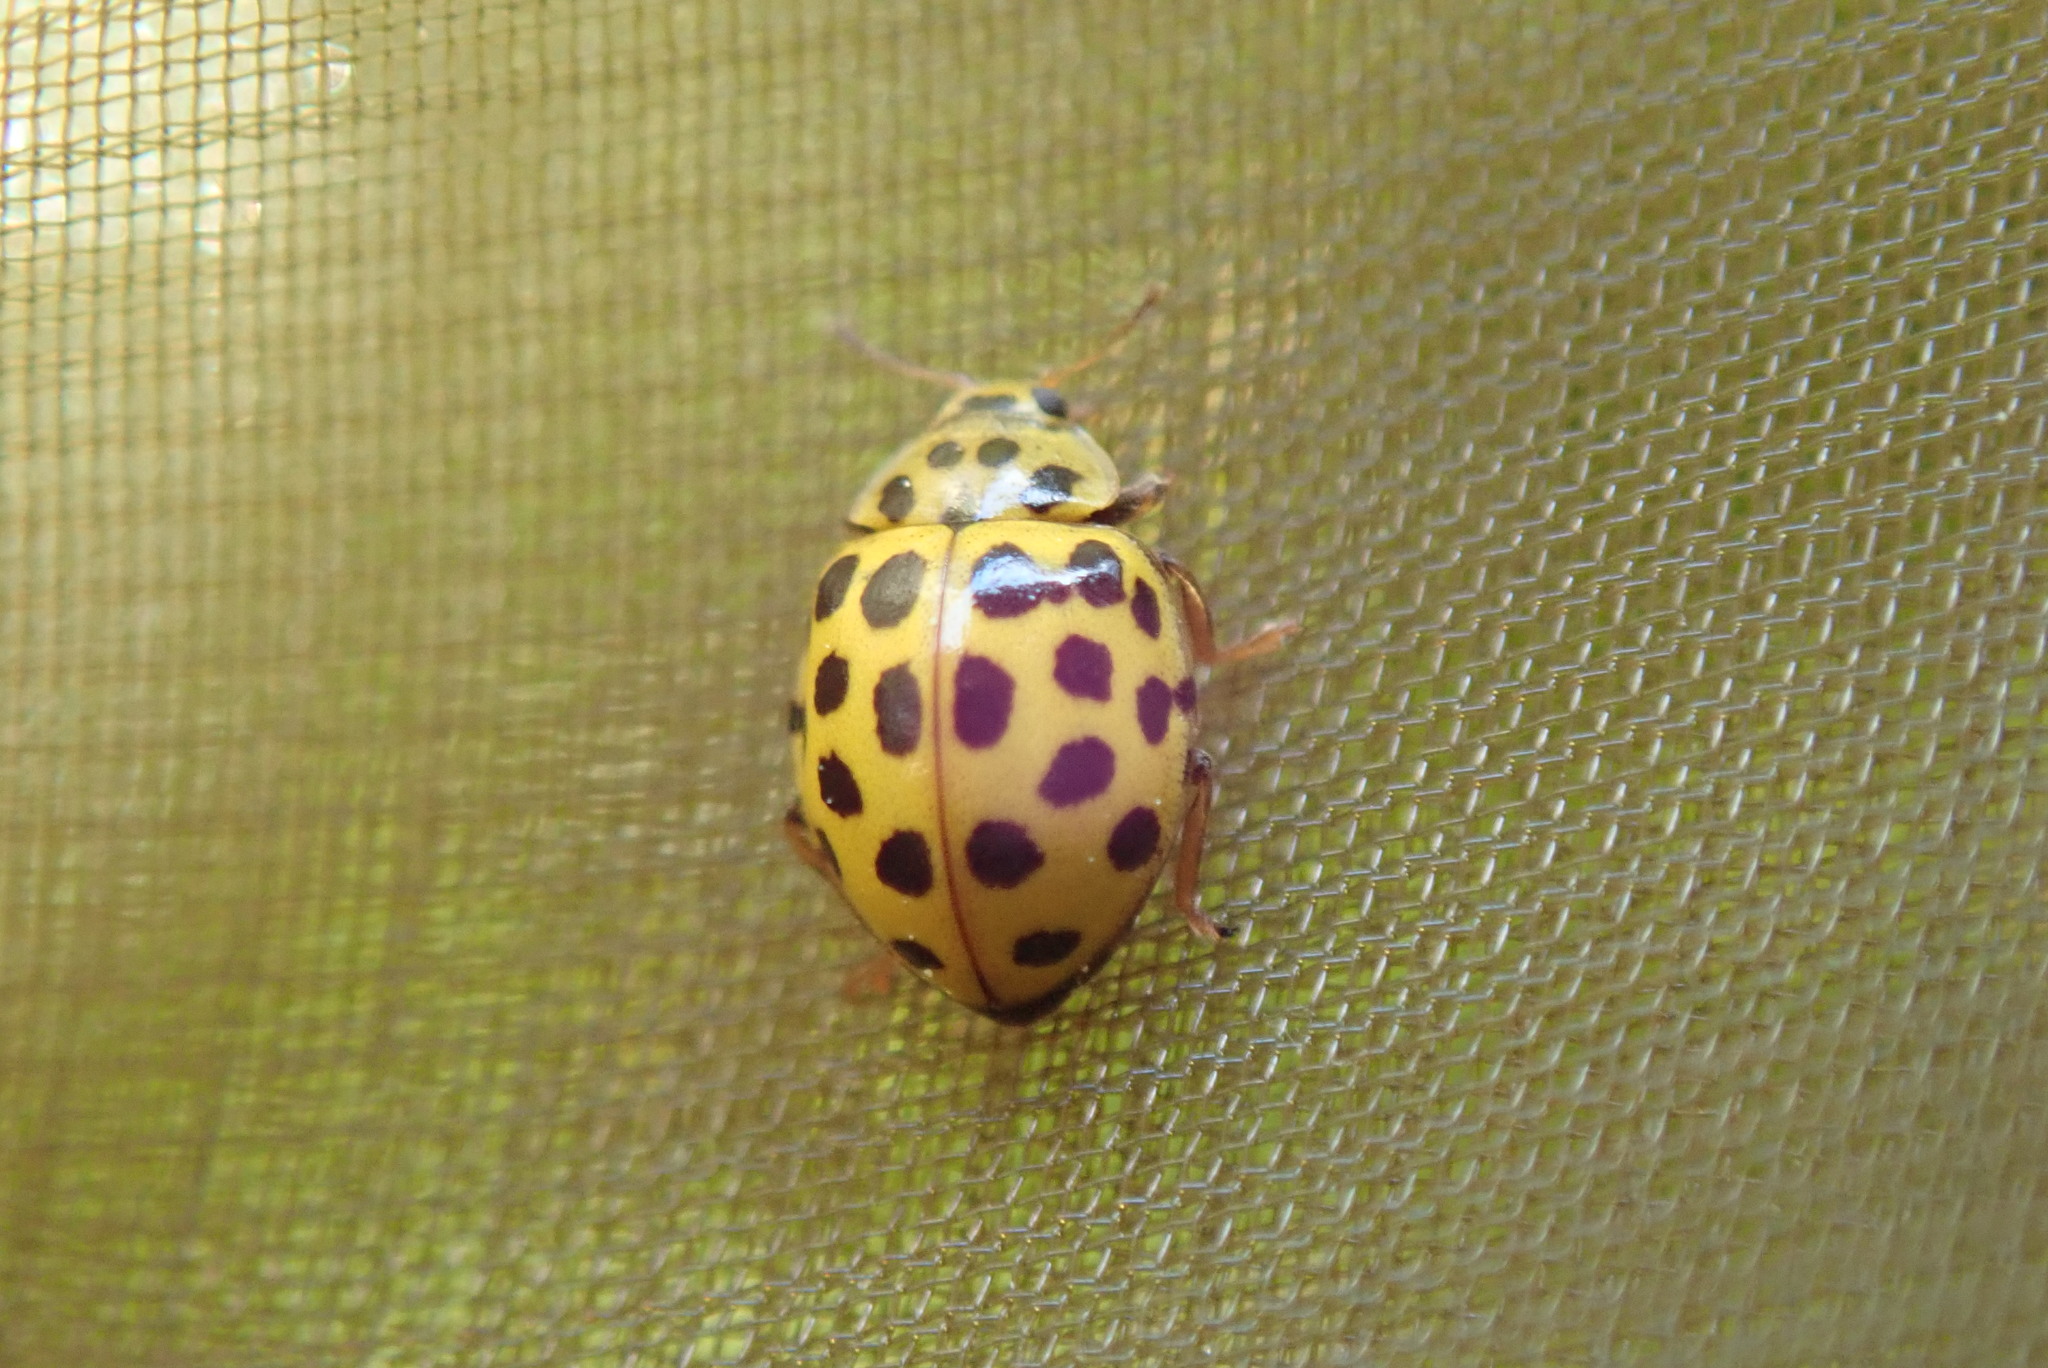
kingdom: Animalia
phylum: Arthropoda
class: Insecta
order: Coleoptera
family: Coccinellidae
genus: Psyllobora
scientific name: Psyllobora vigintiduopunctata
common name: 22-spot ladybird
